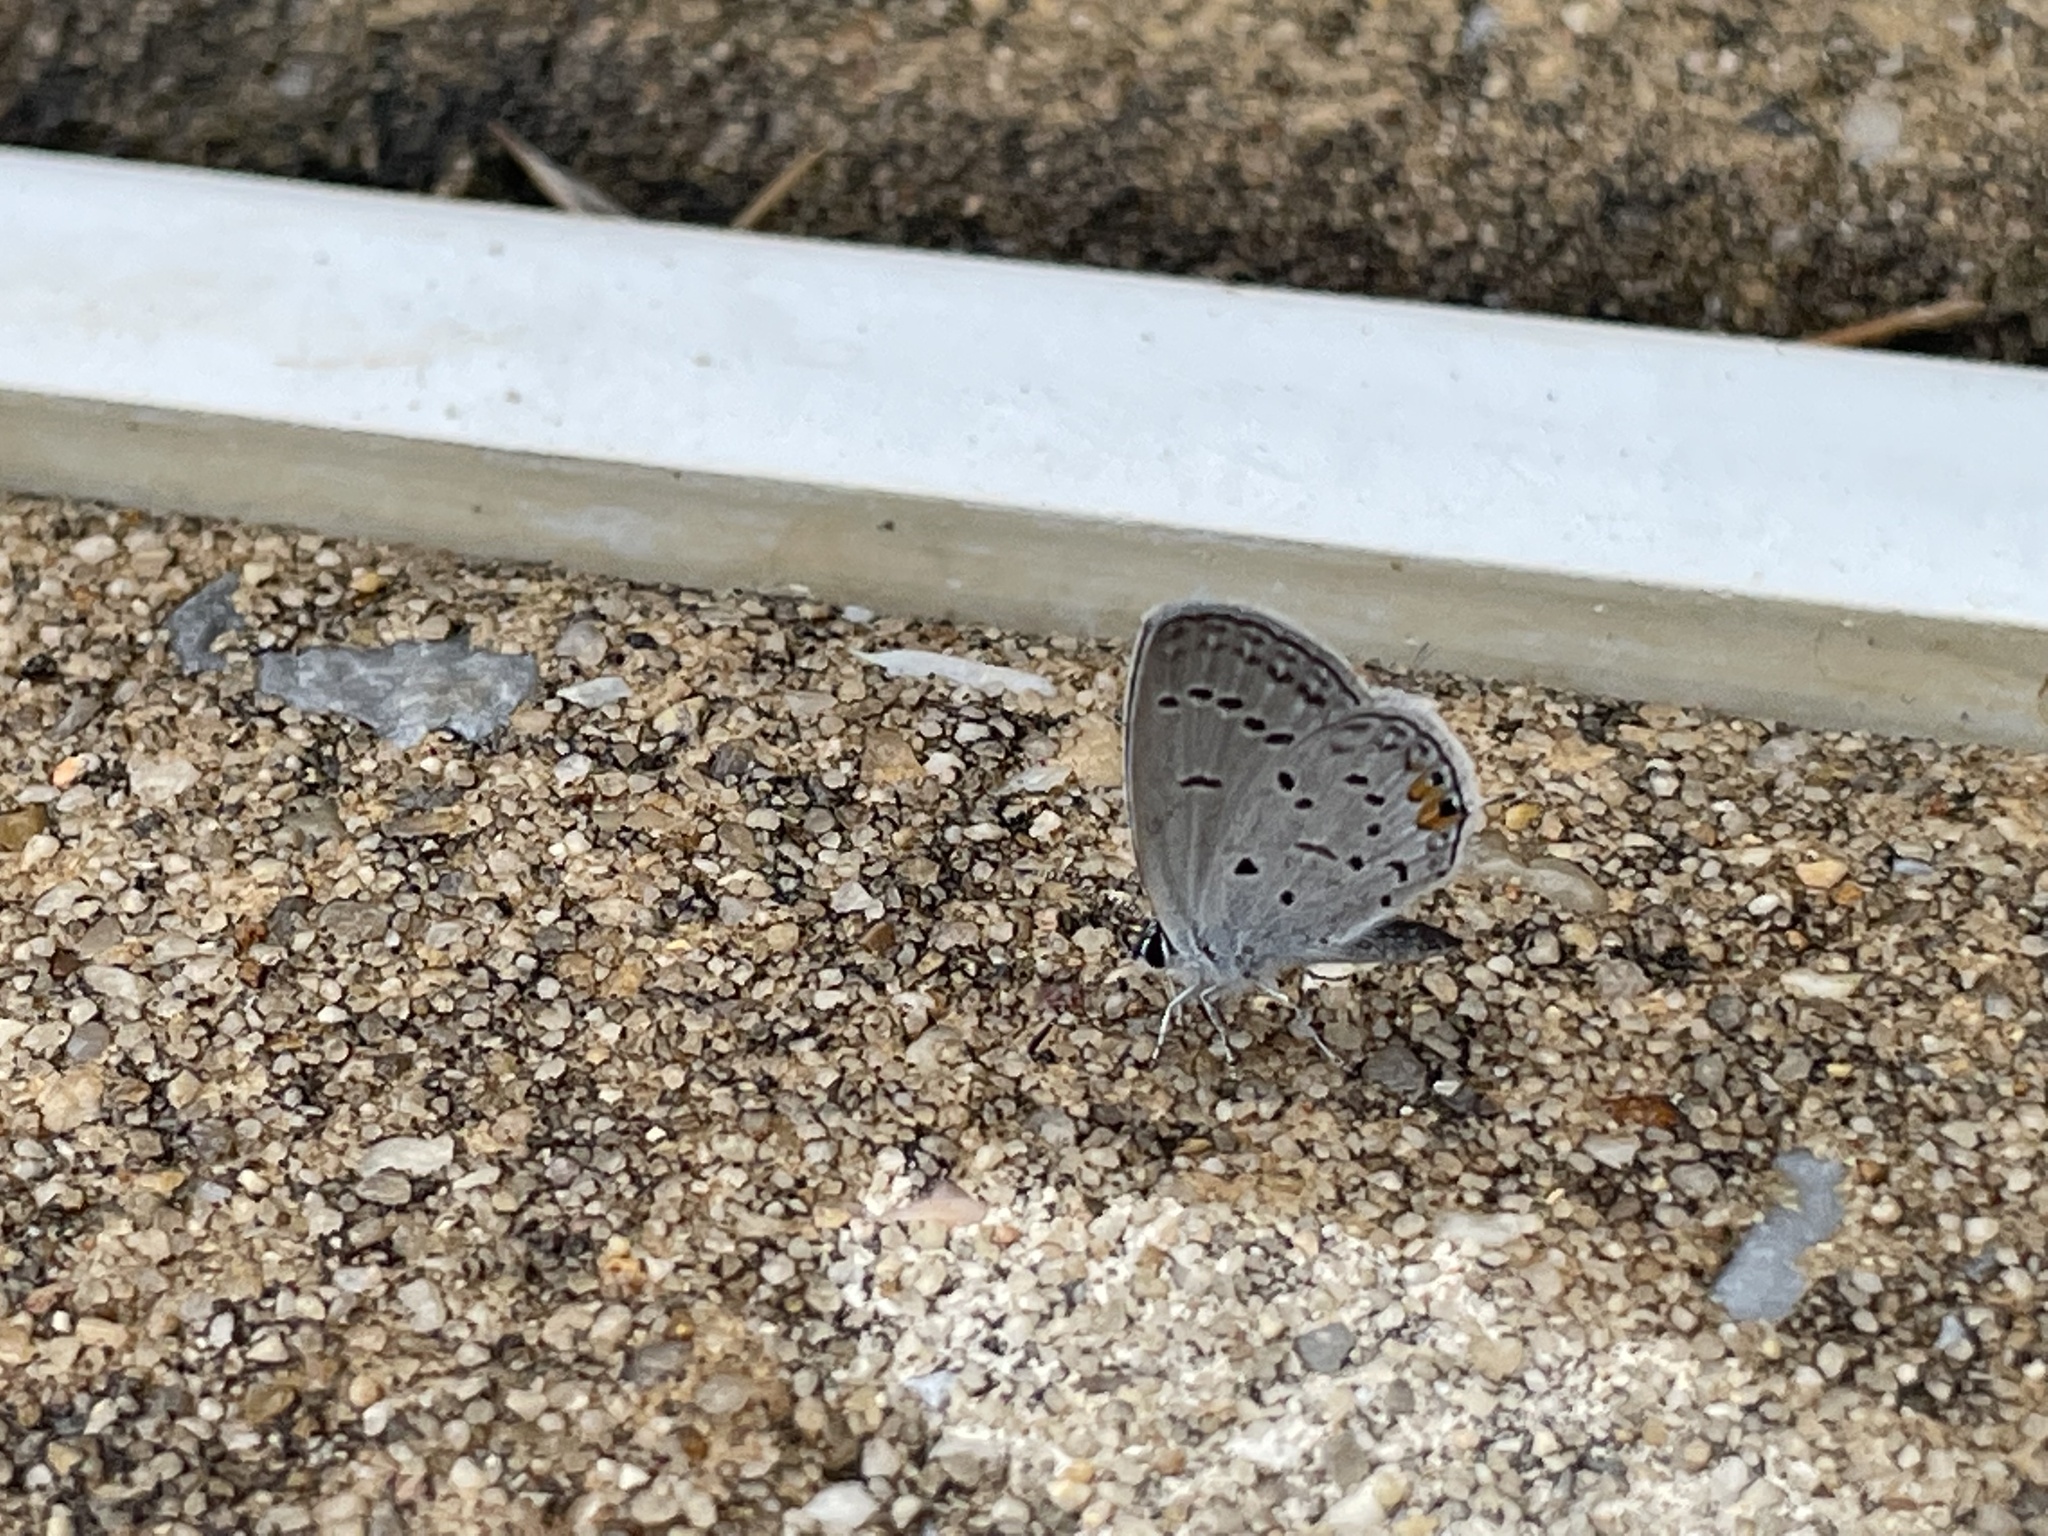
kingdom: Animalia
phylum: Arthropoda
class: Insecta
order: Lepidoptera
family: Lycaenidae
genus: Elkalyce
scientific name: Elkalyce comyntas
